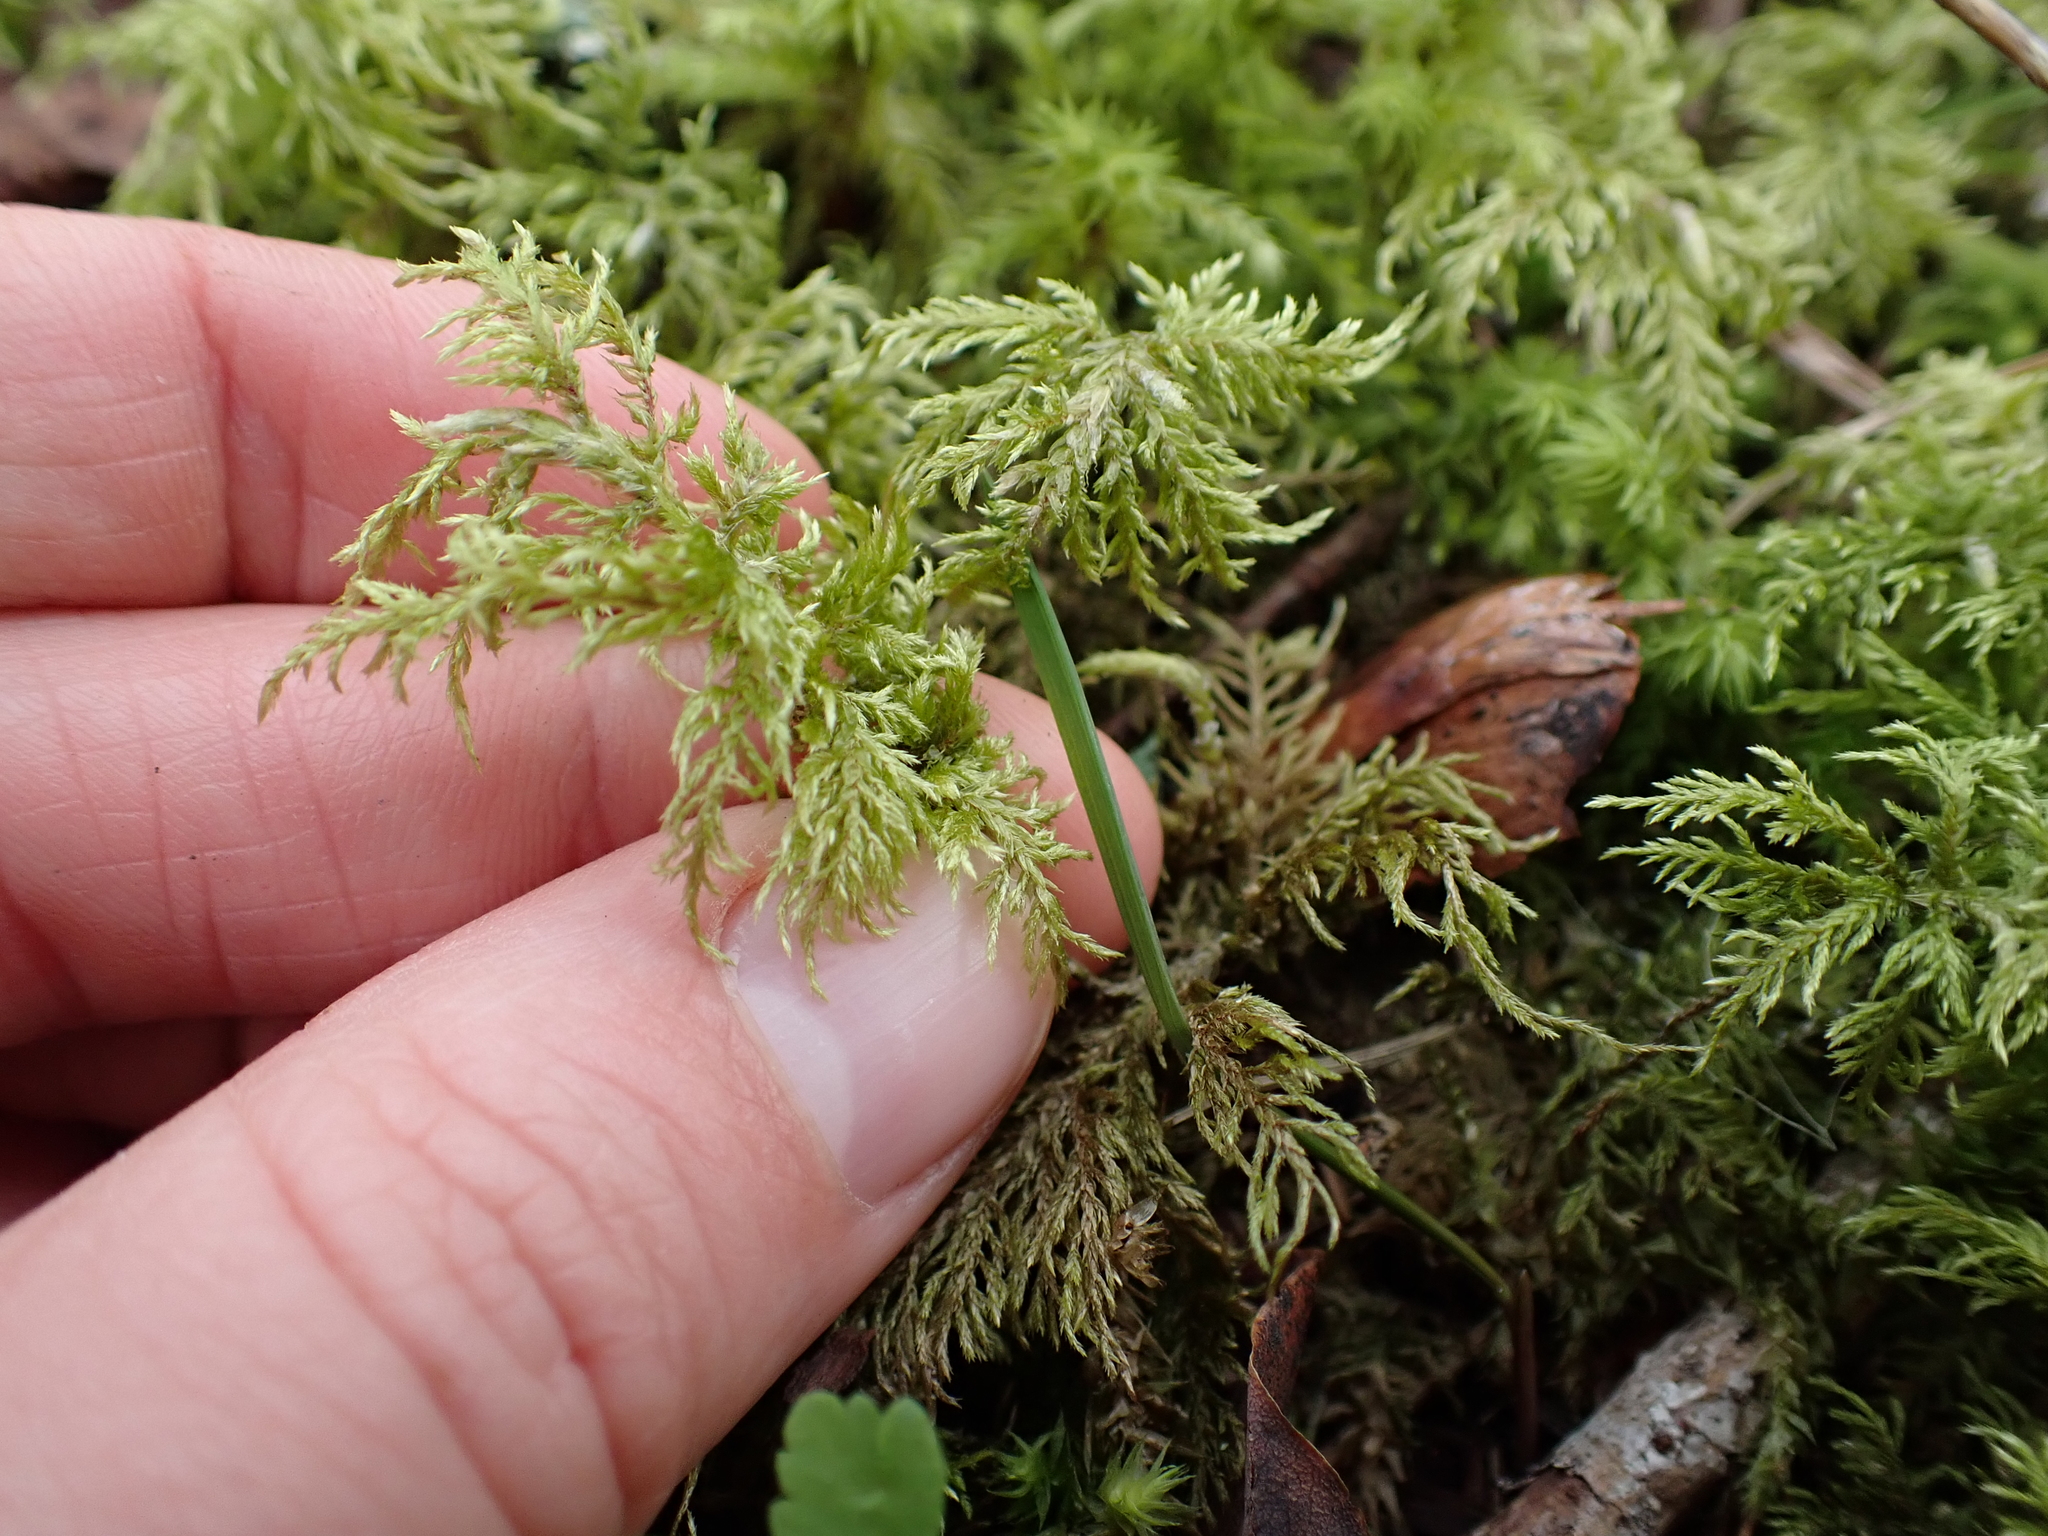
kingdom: Plantae
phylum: Bryophyta
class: Bryopsida
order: Hypnales
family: Hylocomiaceae
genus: Hylocomium
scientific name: Hylocomium splendens
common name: Stairstep moss
